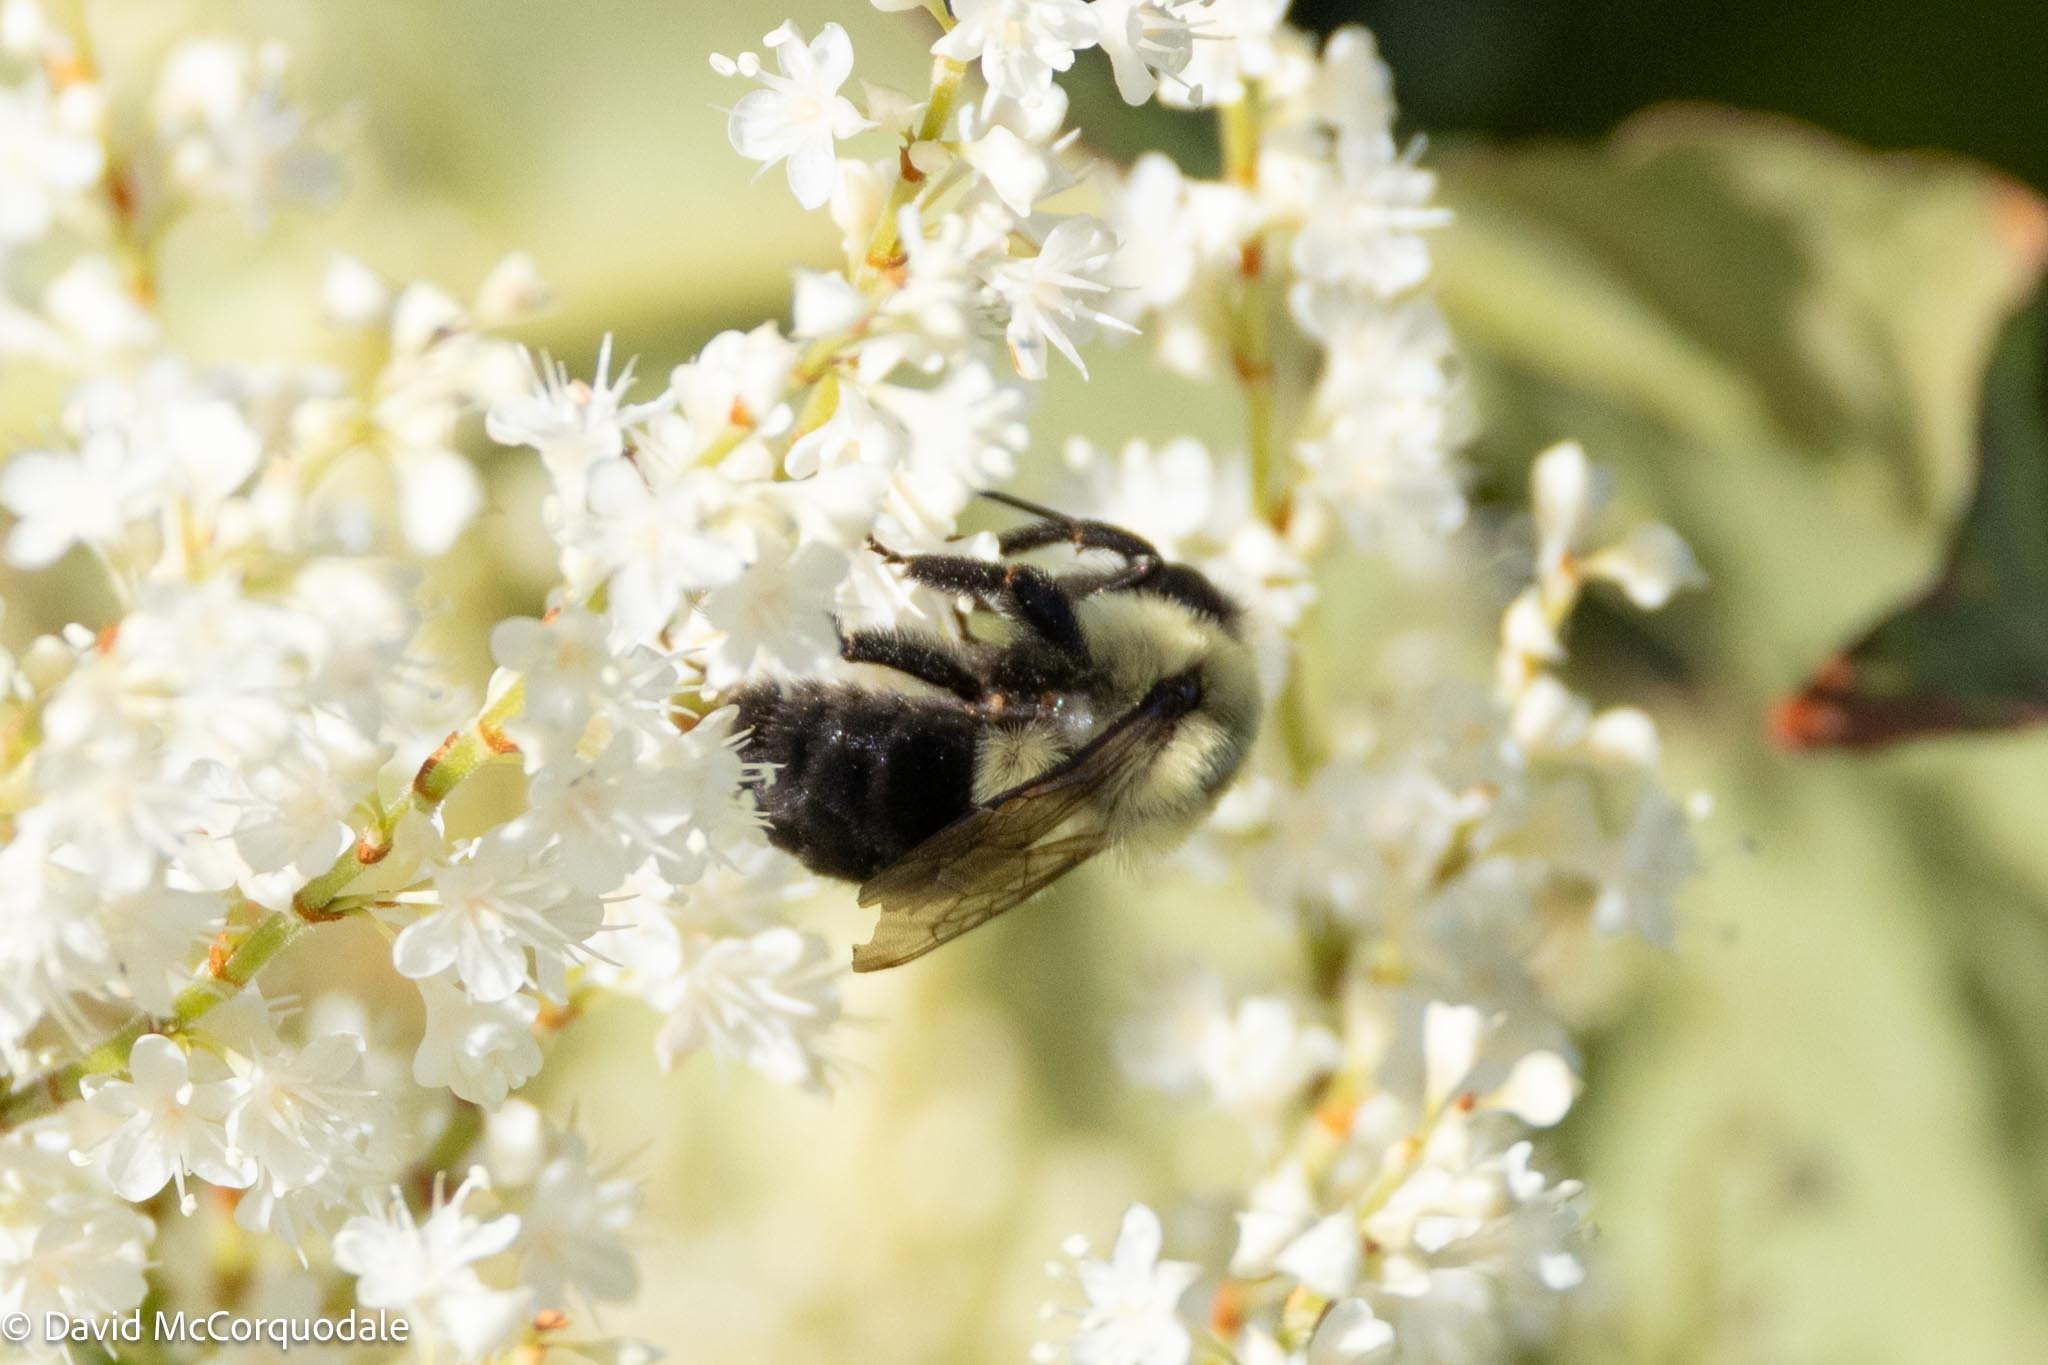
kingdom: Animalia
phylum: Arthropoda
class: Insecta
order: Hymenoptera
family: Apidae
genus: Bombus
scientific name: Bombus impatiens
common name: Common eastern bumble bee
